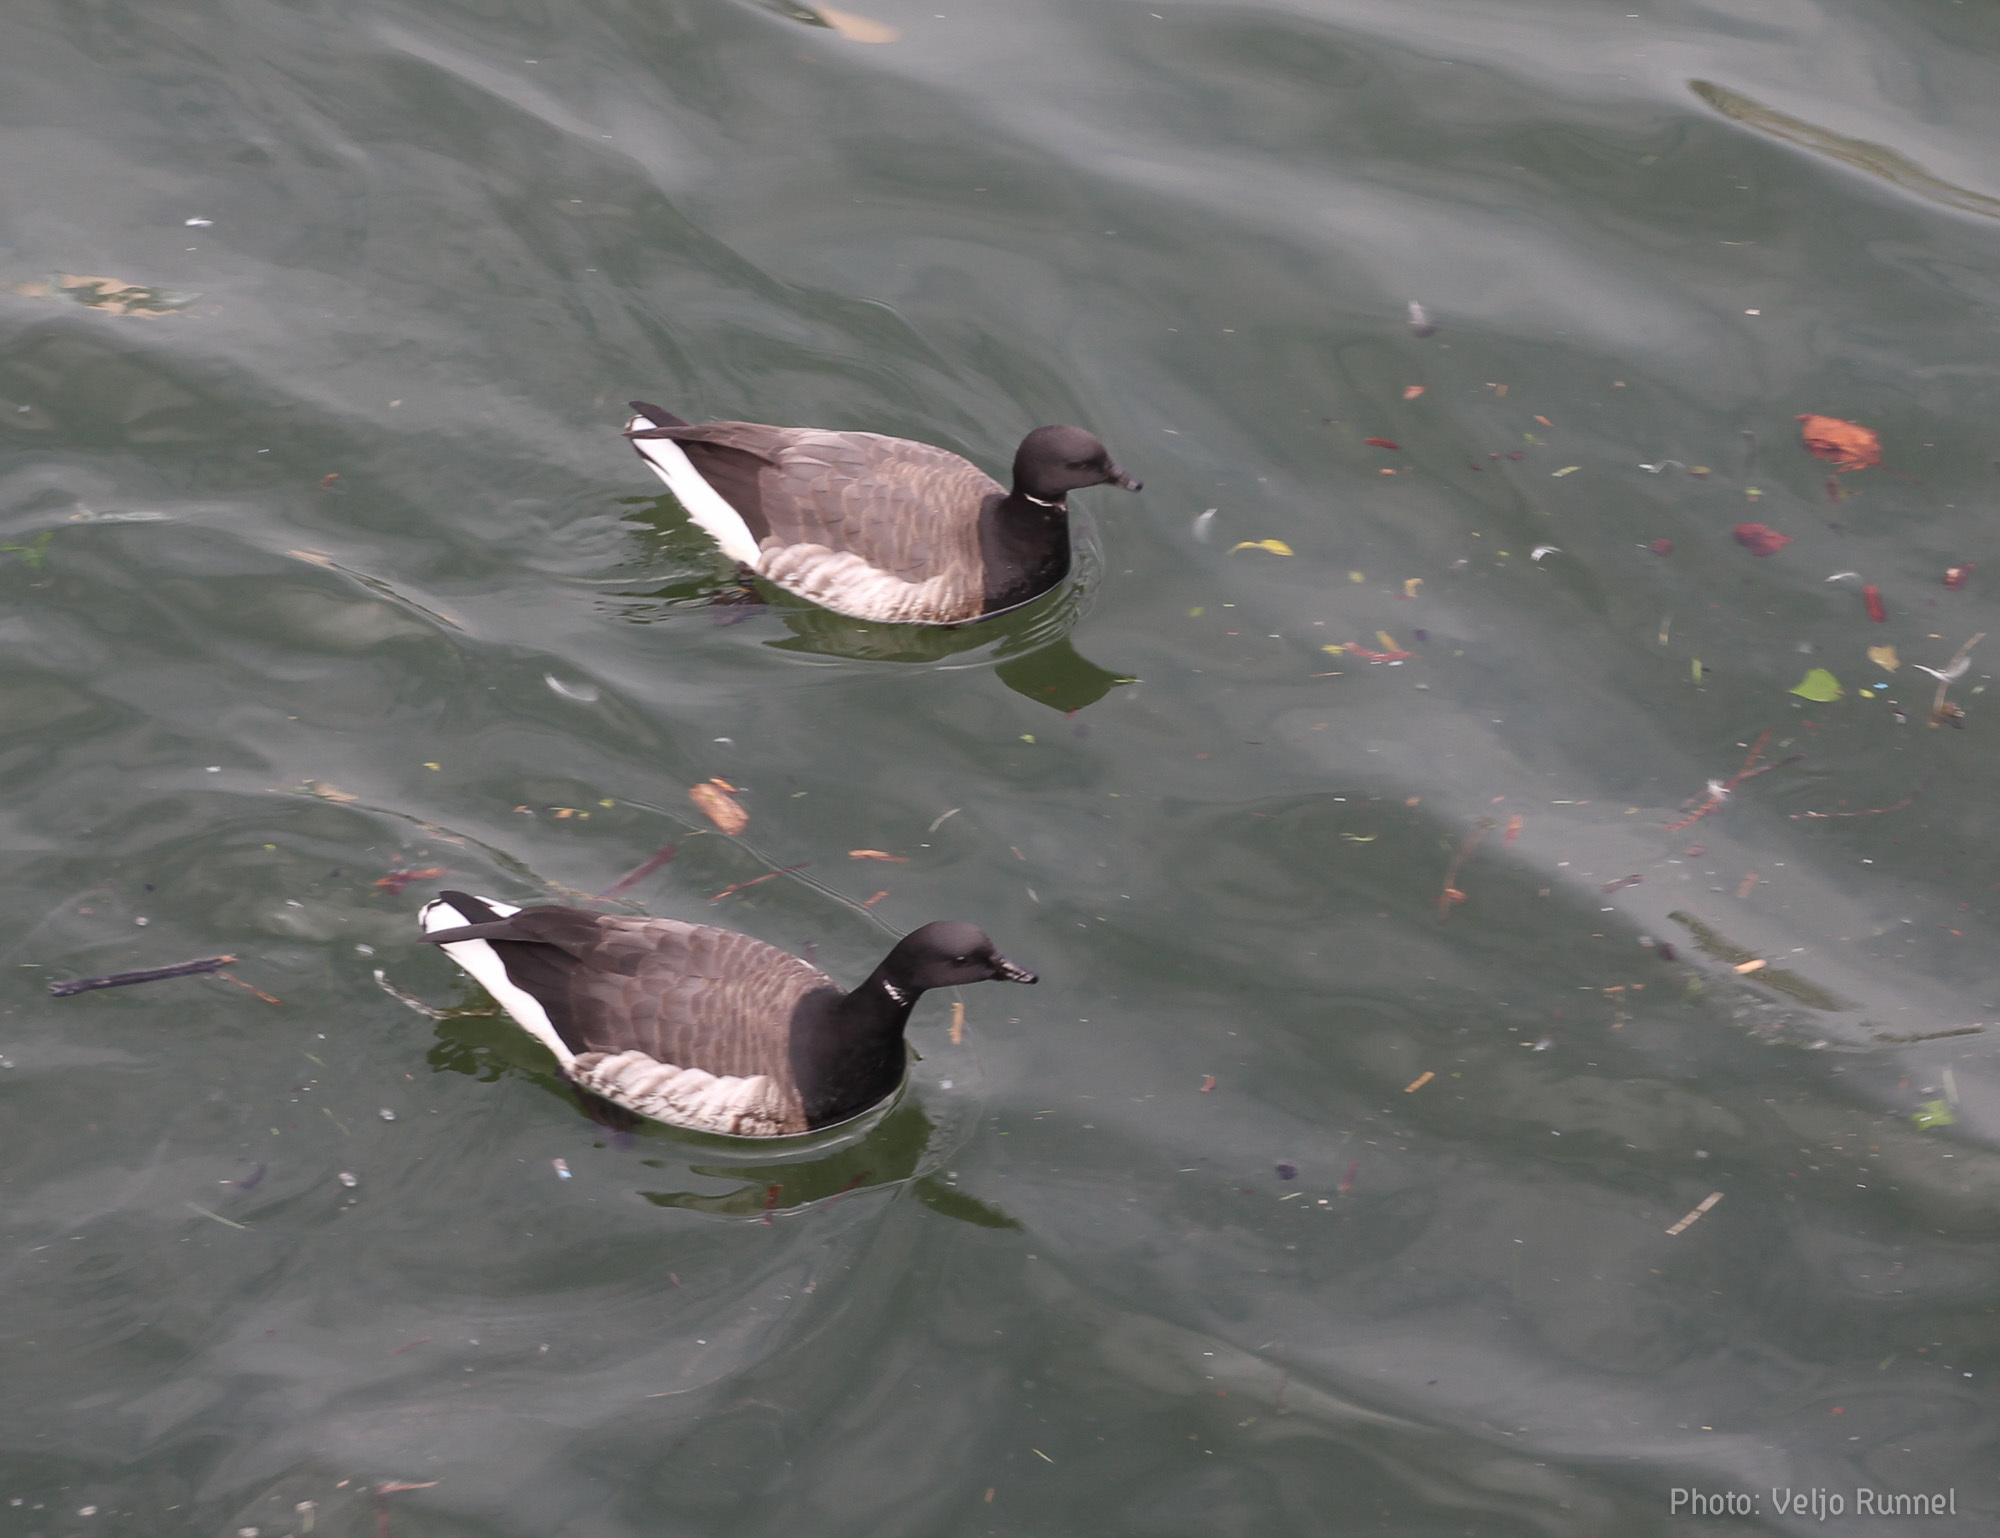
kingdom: Animalia
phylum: Chordata
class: Aves
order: Anseriformes
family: Anatidae
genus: Branta
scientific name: Branta bernicla
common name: Brant goose
